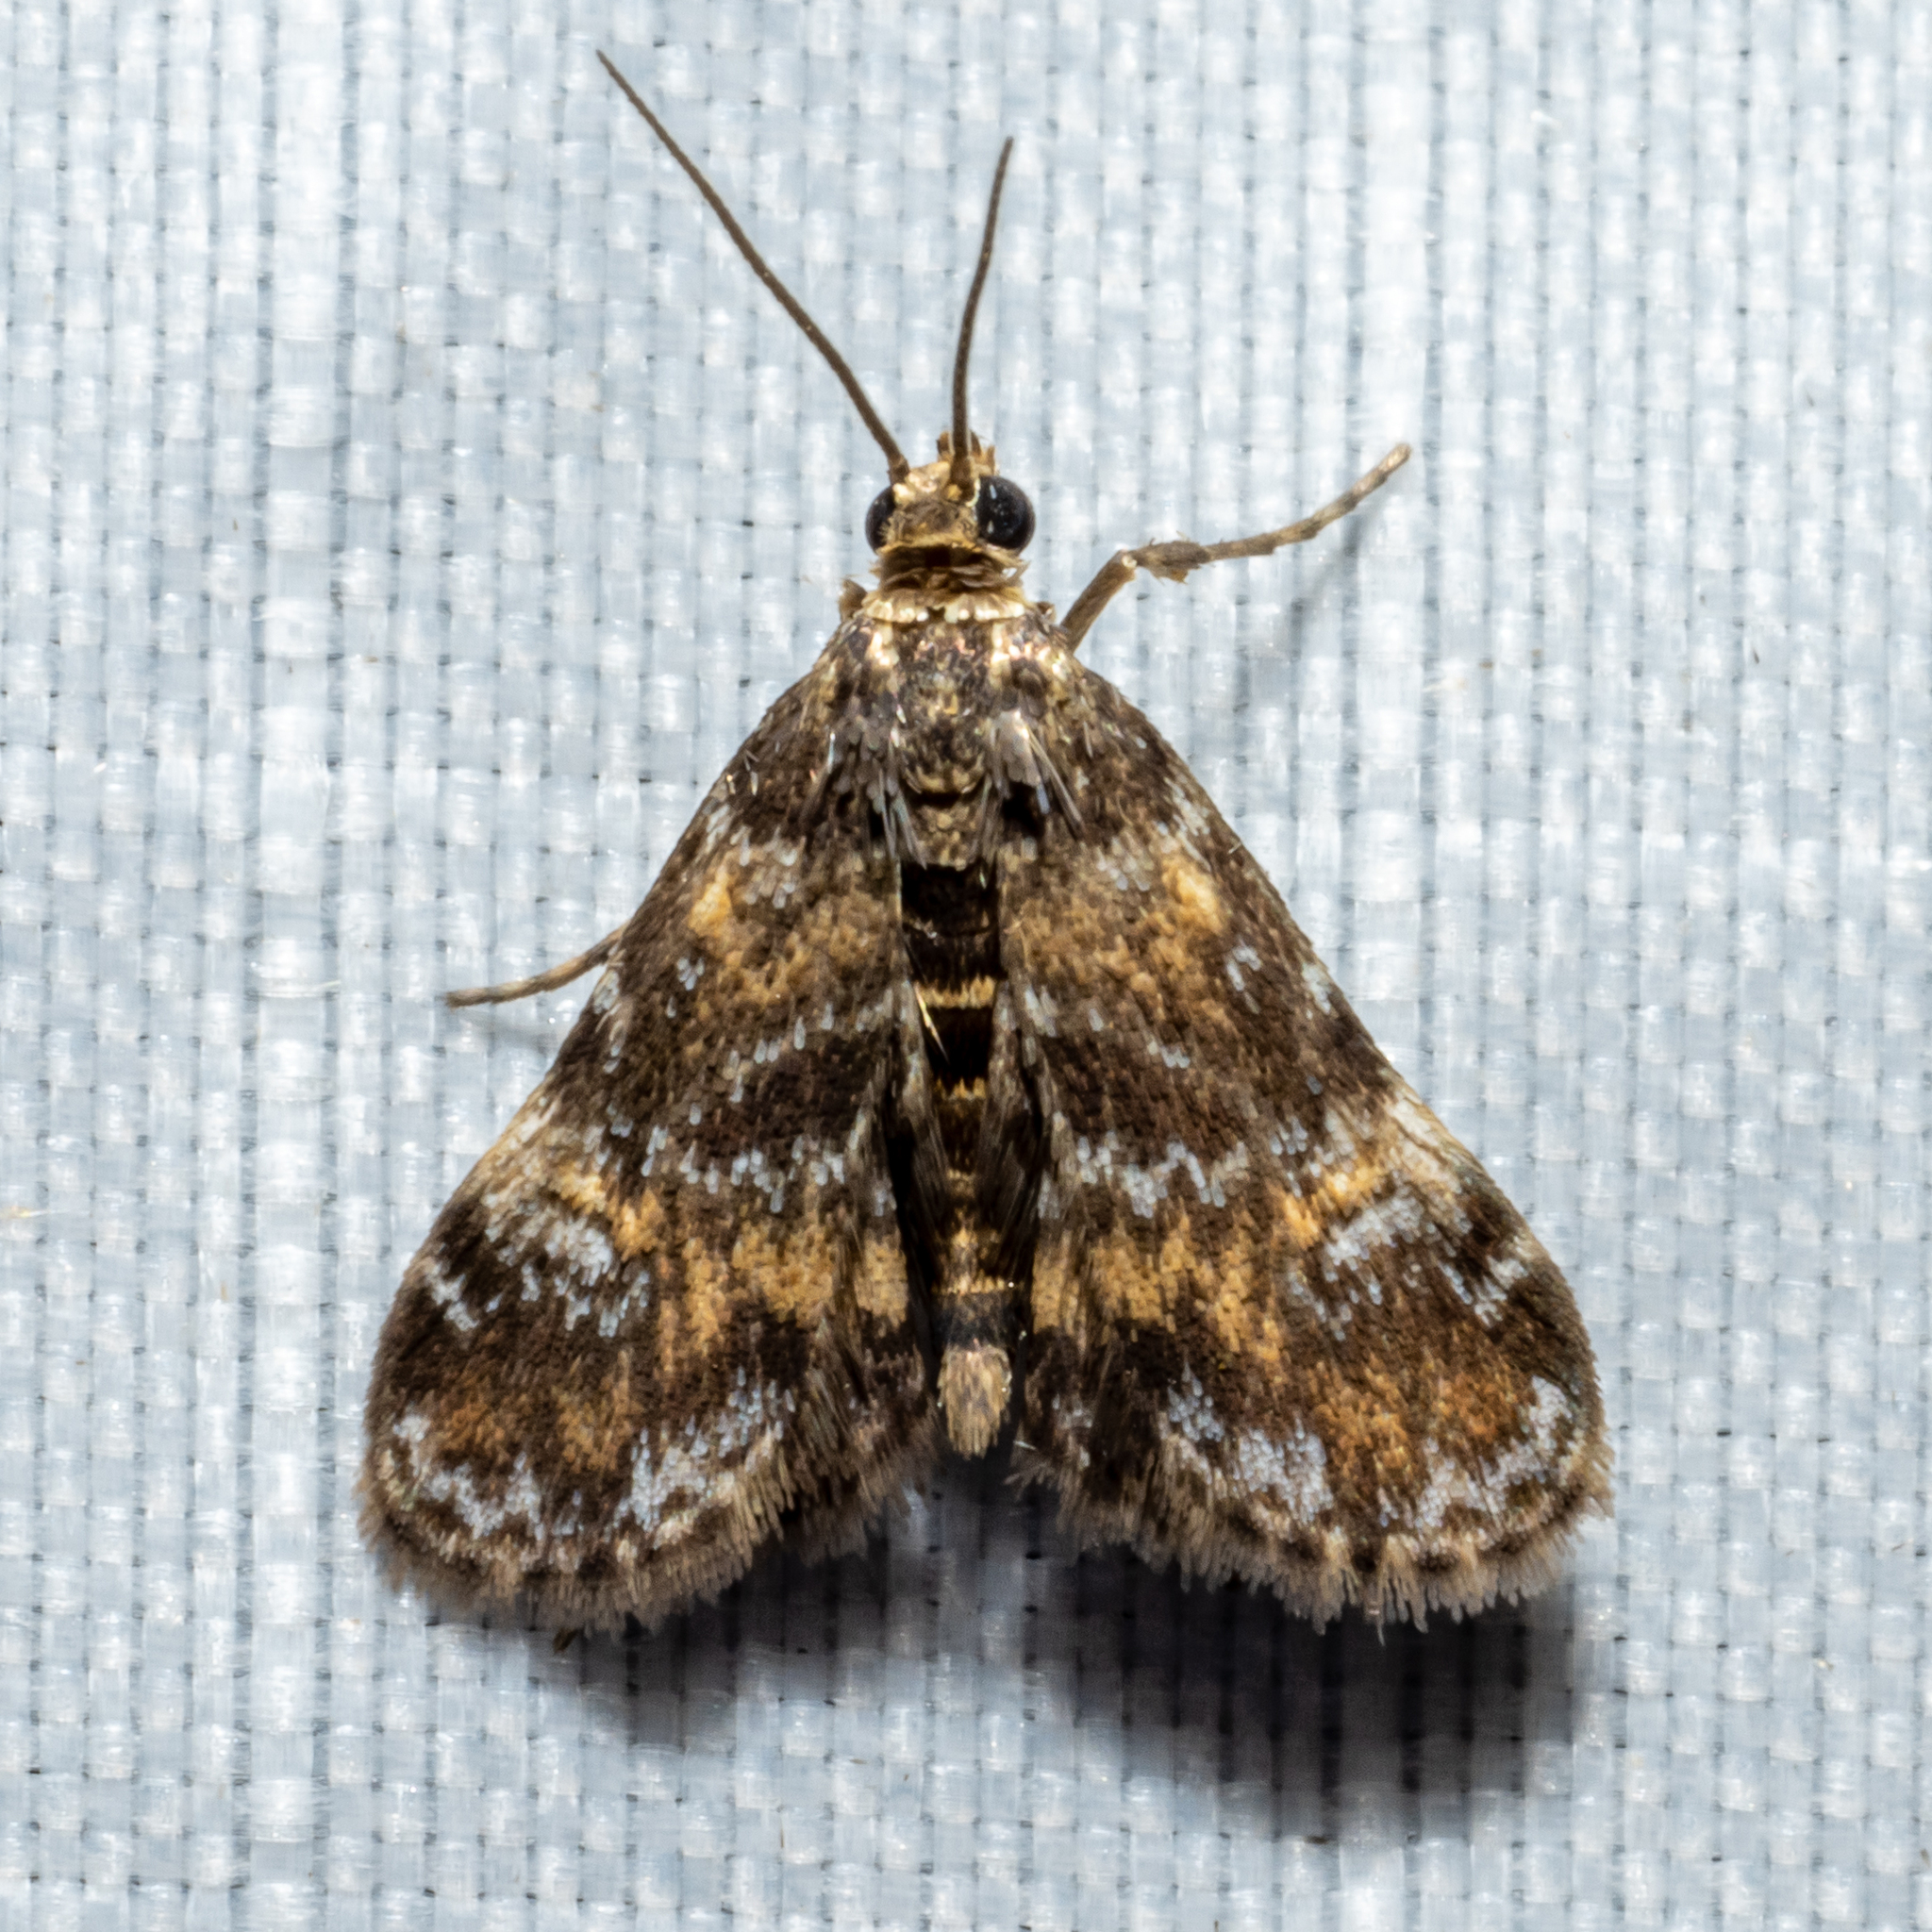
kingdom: Animalia
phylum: Arthropoda
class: Insecta
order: Lepidoptera
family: Crambidae
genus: Elophila
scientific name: Elophila obliteralis
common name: Waterlily leafcutter moth
